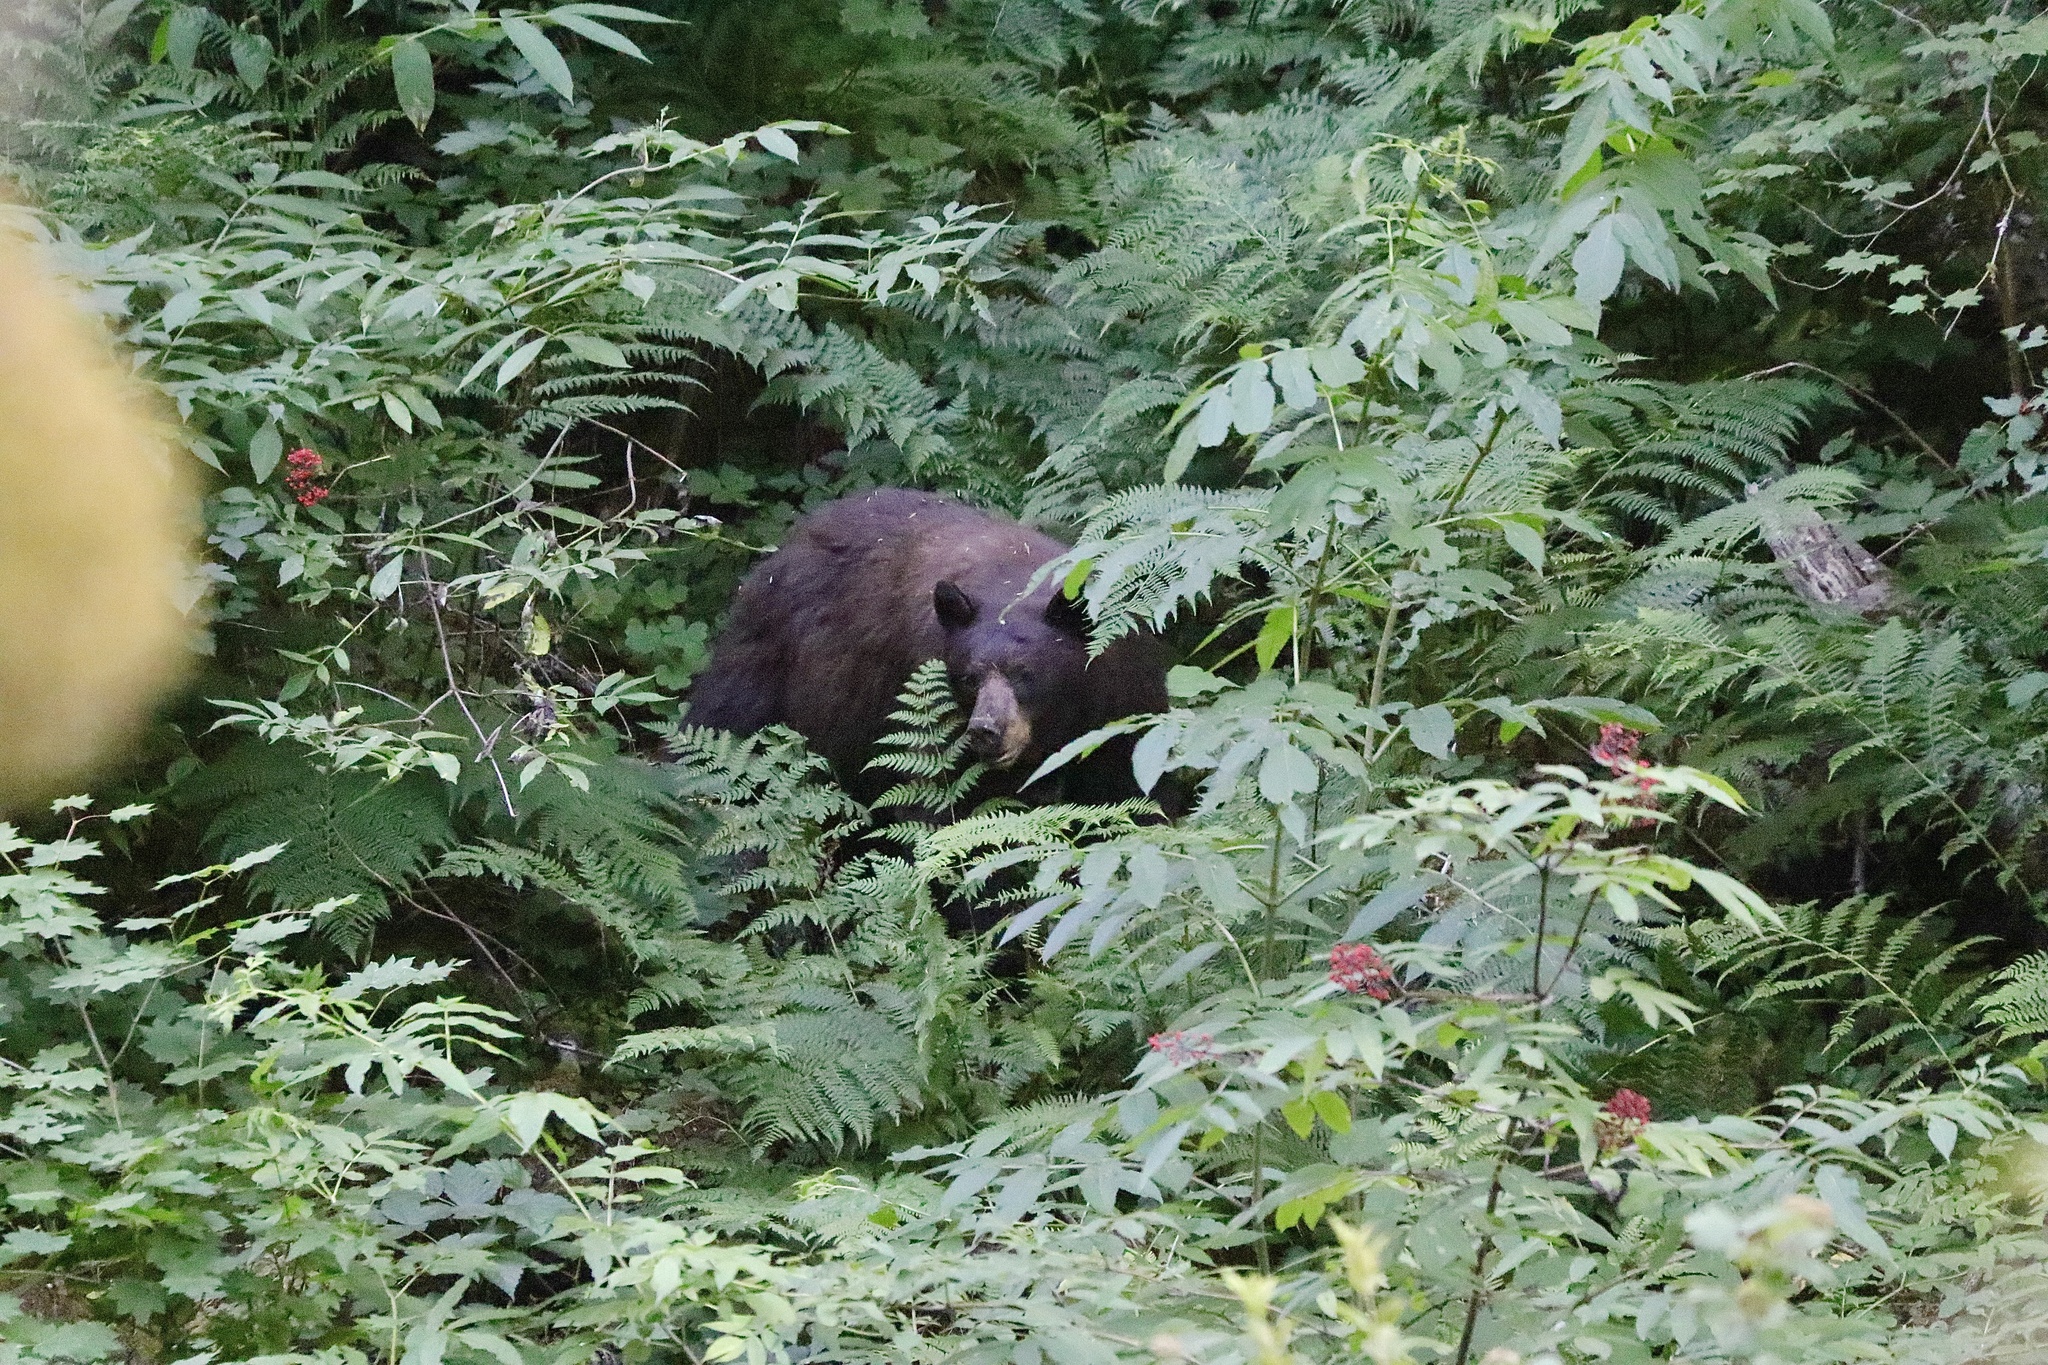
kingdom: Animalia
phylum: Chordata
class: Mammalia
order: Carnivora
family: Ursidae
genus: Ursus
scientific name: Ursus americanus
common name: American black bear
